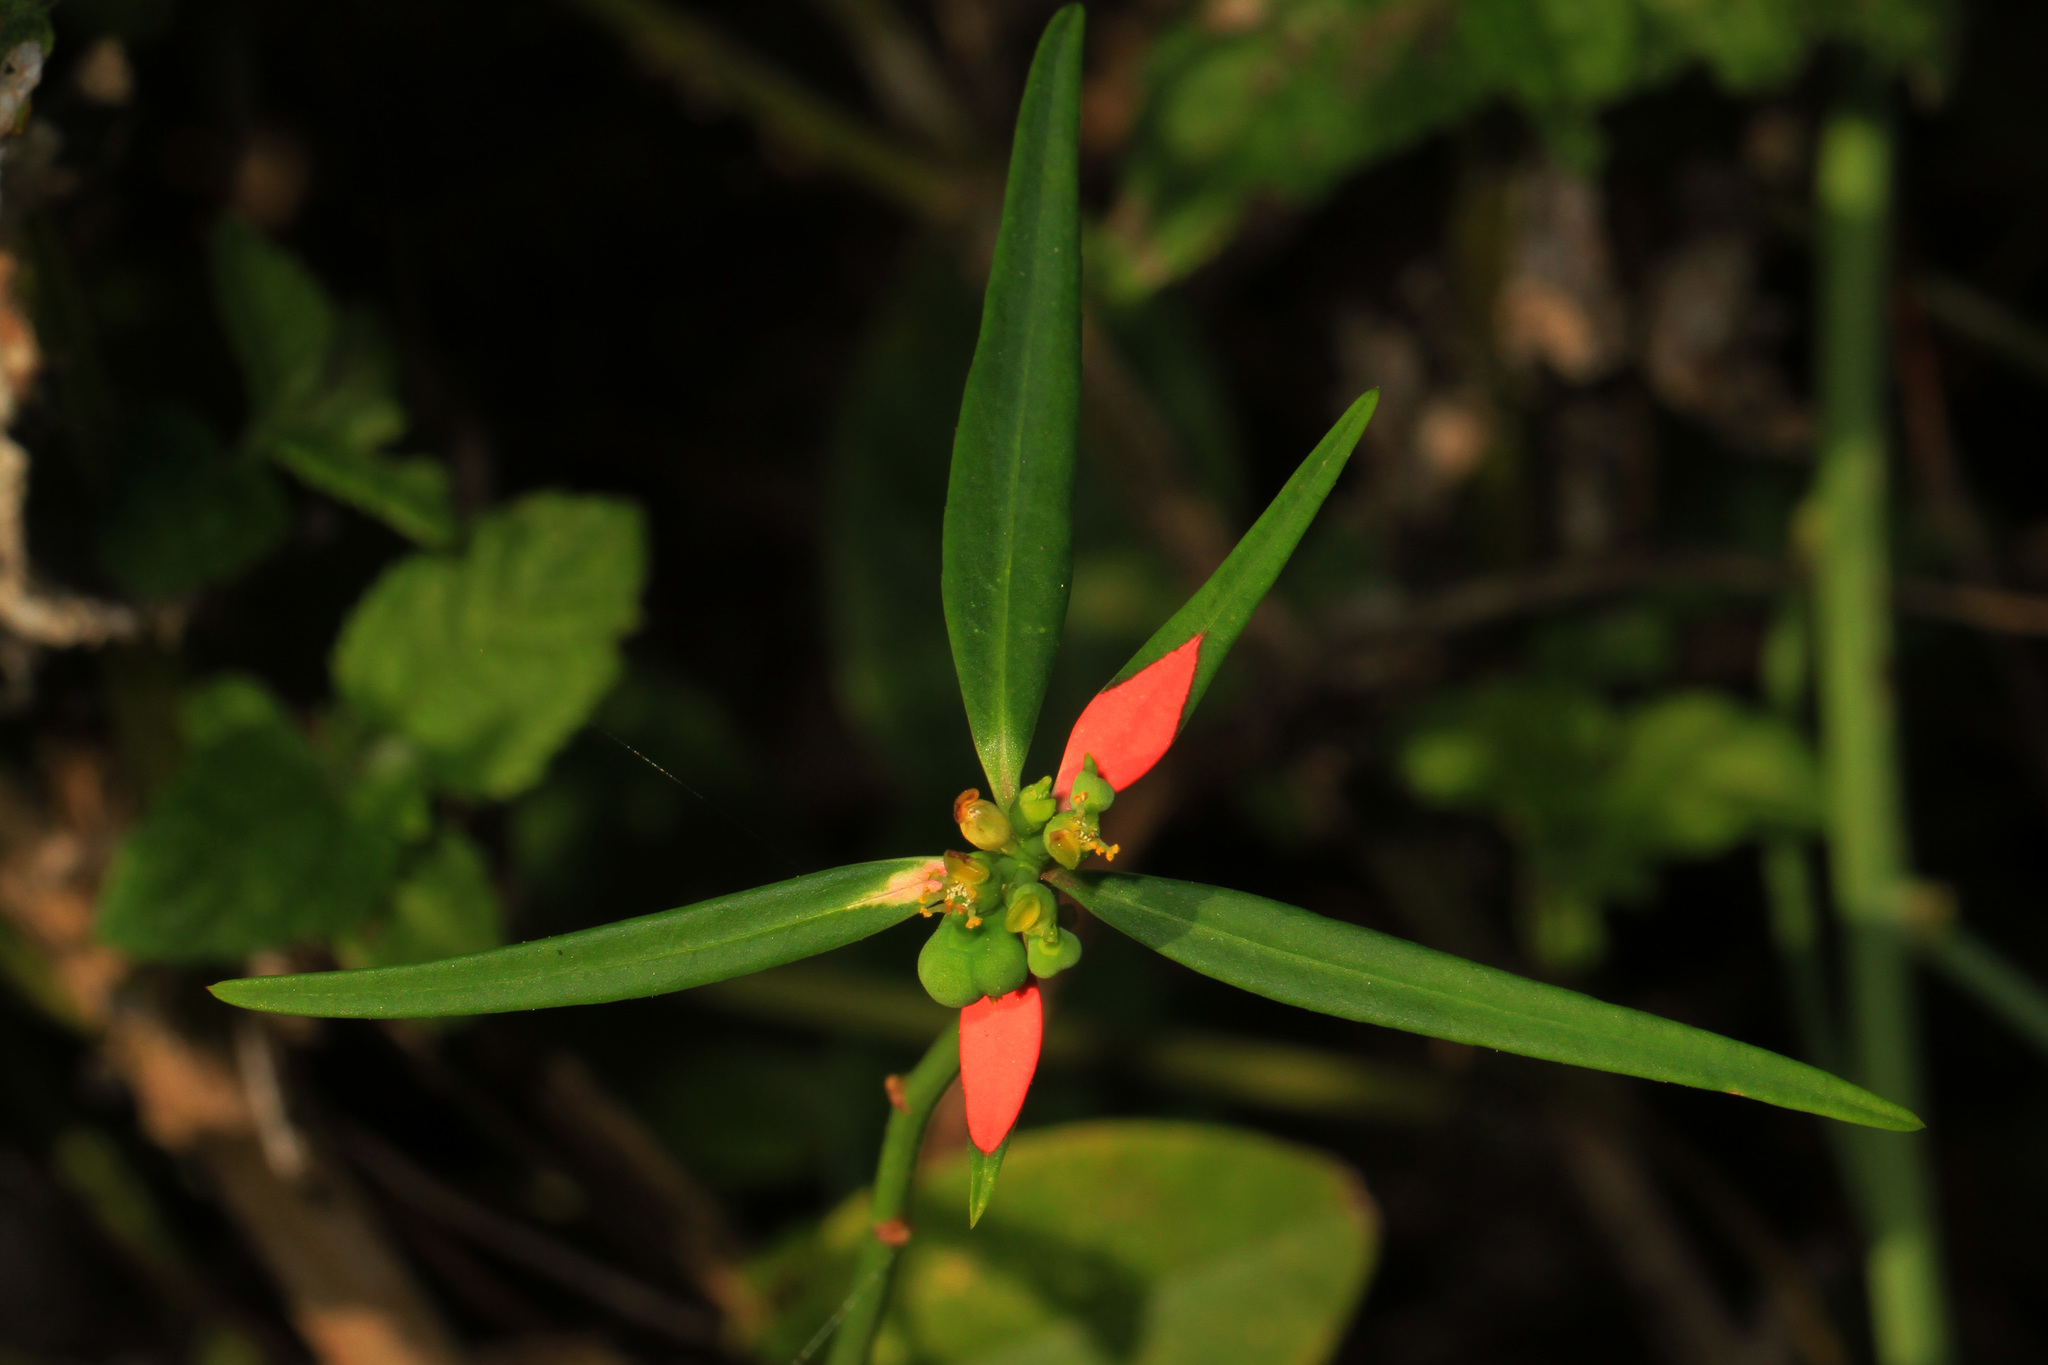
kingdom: Plantae
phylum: Tracheophyta
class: Magnoliopsida
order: Malpighiales
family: Euphorbiaceae
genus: Euphorbia
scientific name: Euphorbia heterophylla
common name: Mexican fireplant
